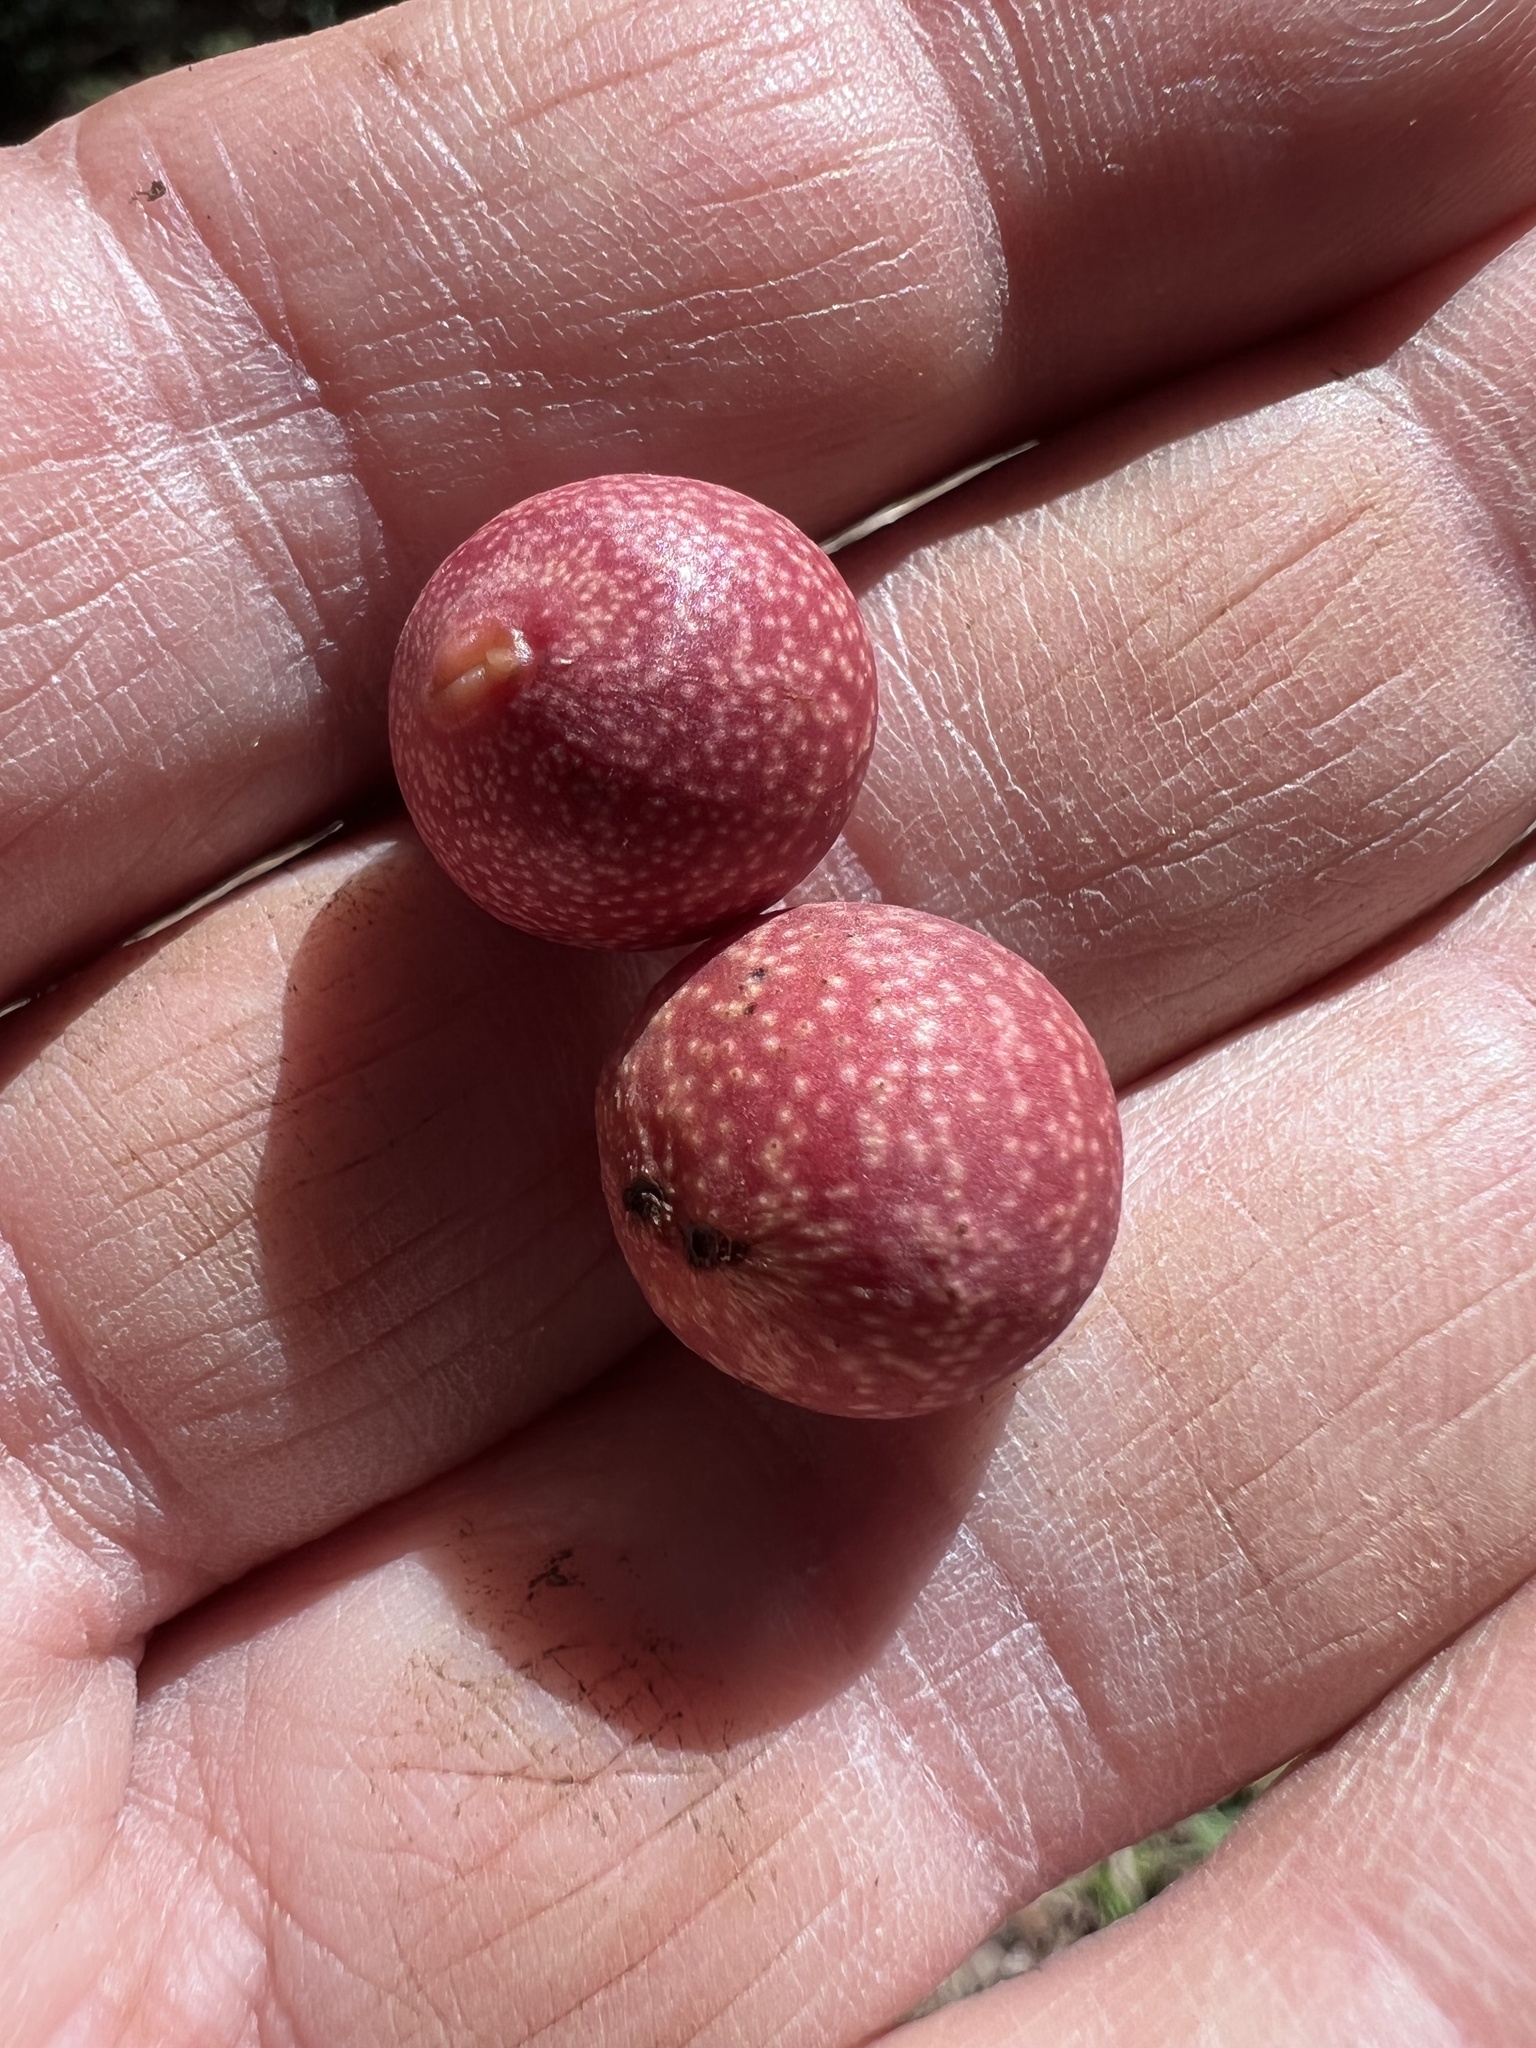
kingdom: Animalia
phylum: Arthropoda
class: Insecta
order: Hymenoptera
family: Cynipidae
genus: Kokkocynips
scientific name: Kokkocynips imbricariae
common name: Banded bullet gall wasp
